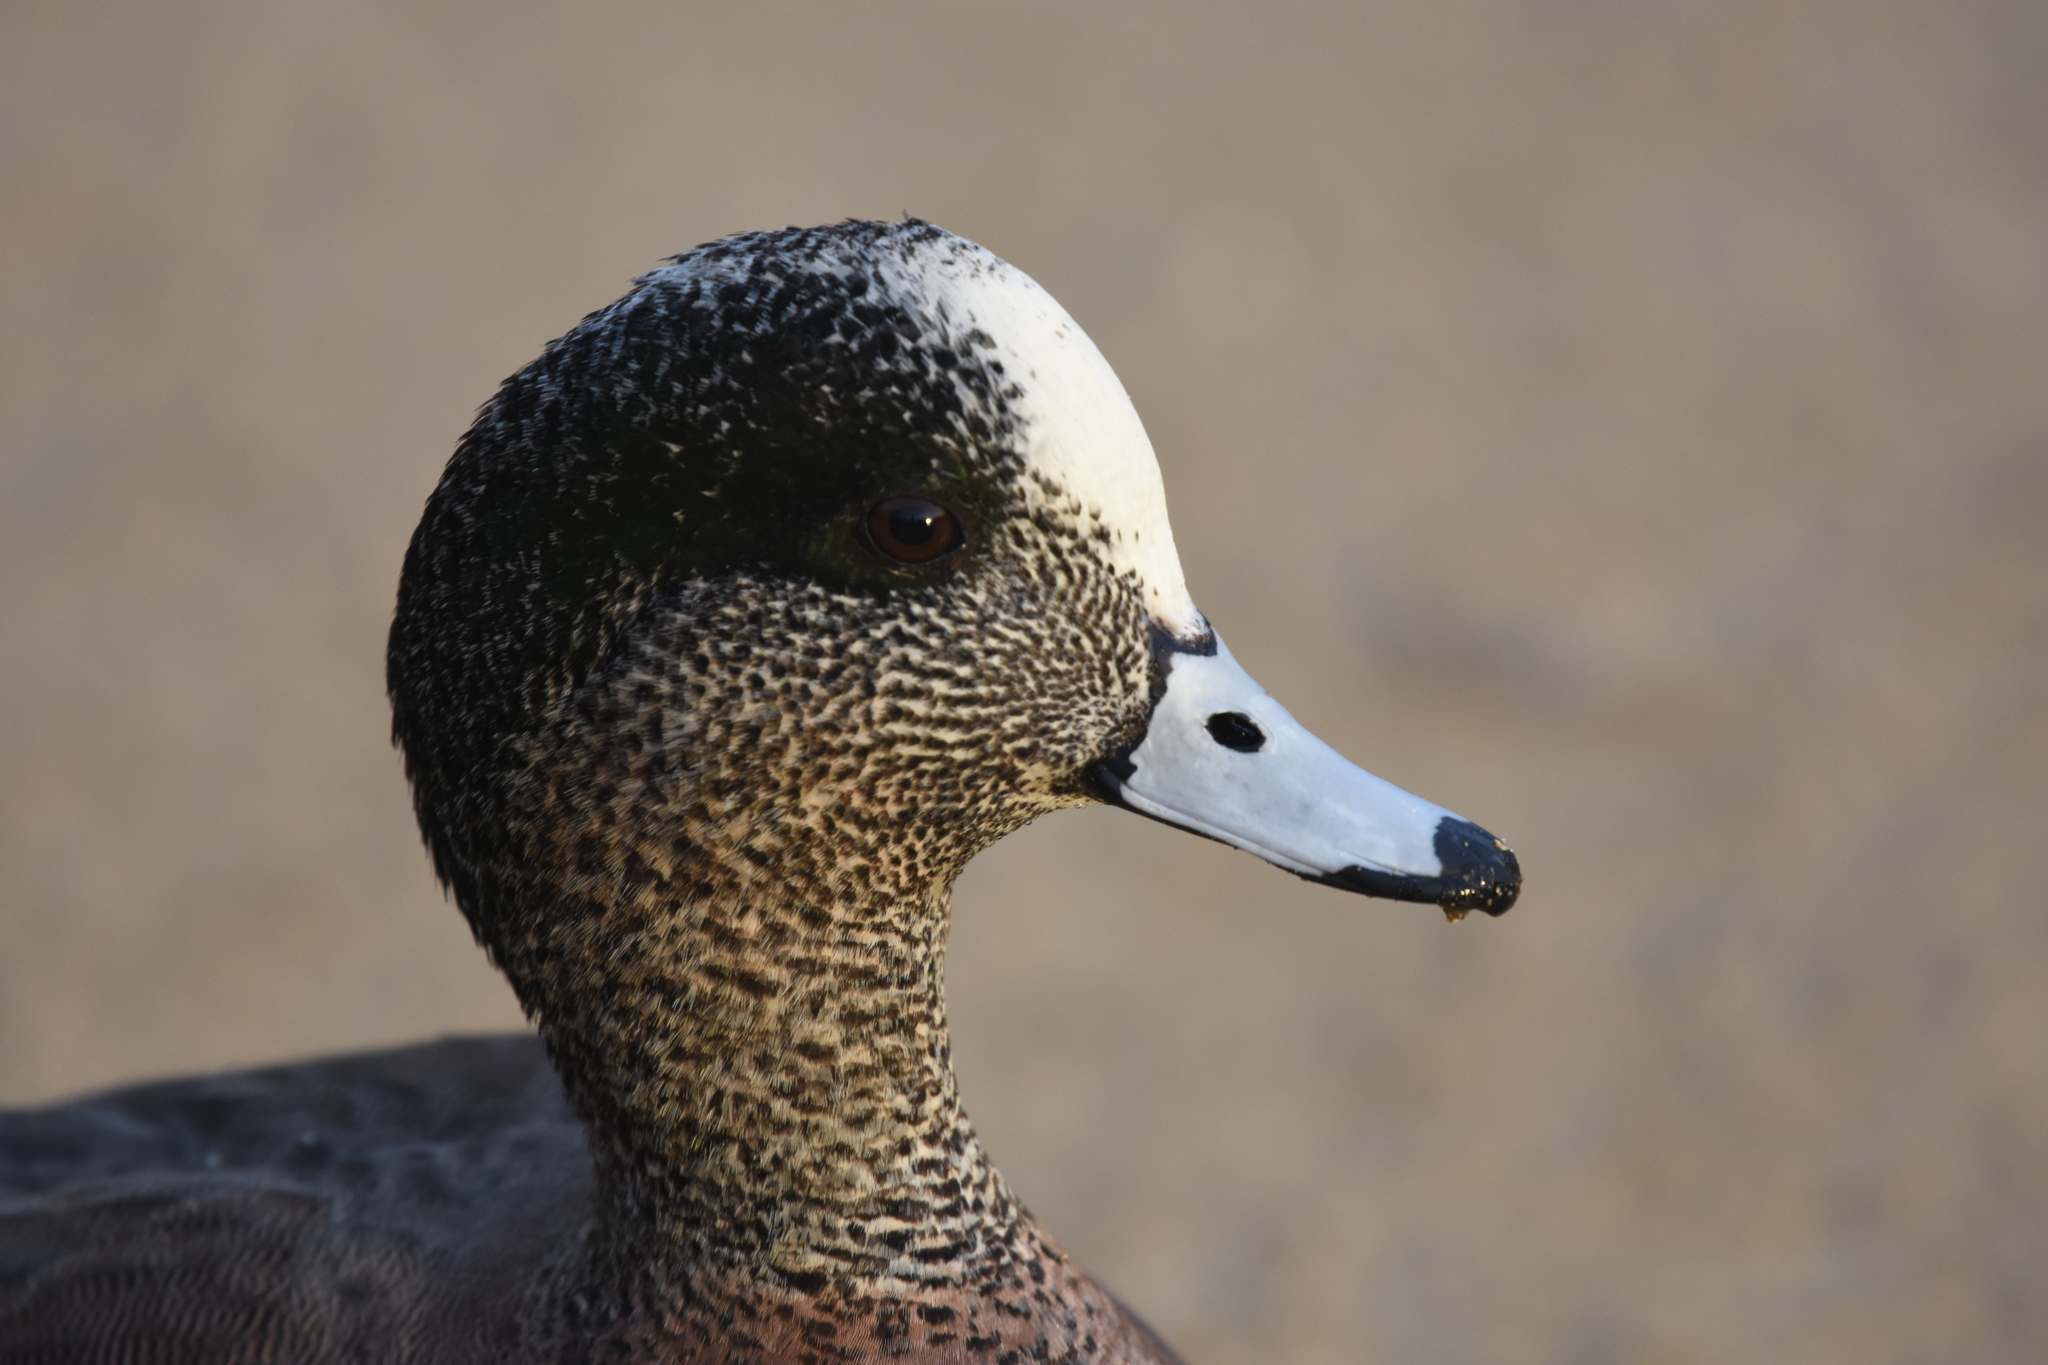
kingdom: Animalia
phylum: Chordata
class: Aves
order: Anseriformes
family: Anatidae
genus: Mareca
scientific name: Mareca americana
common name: American wigeon
